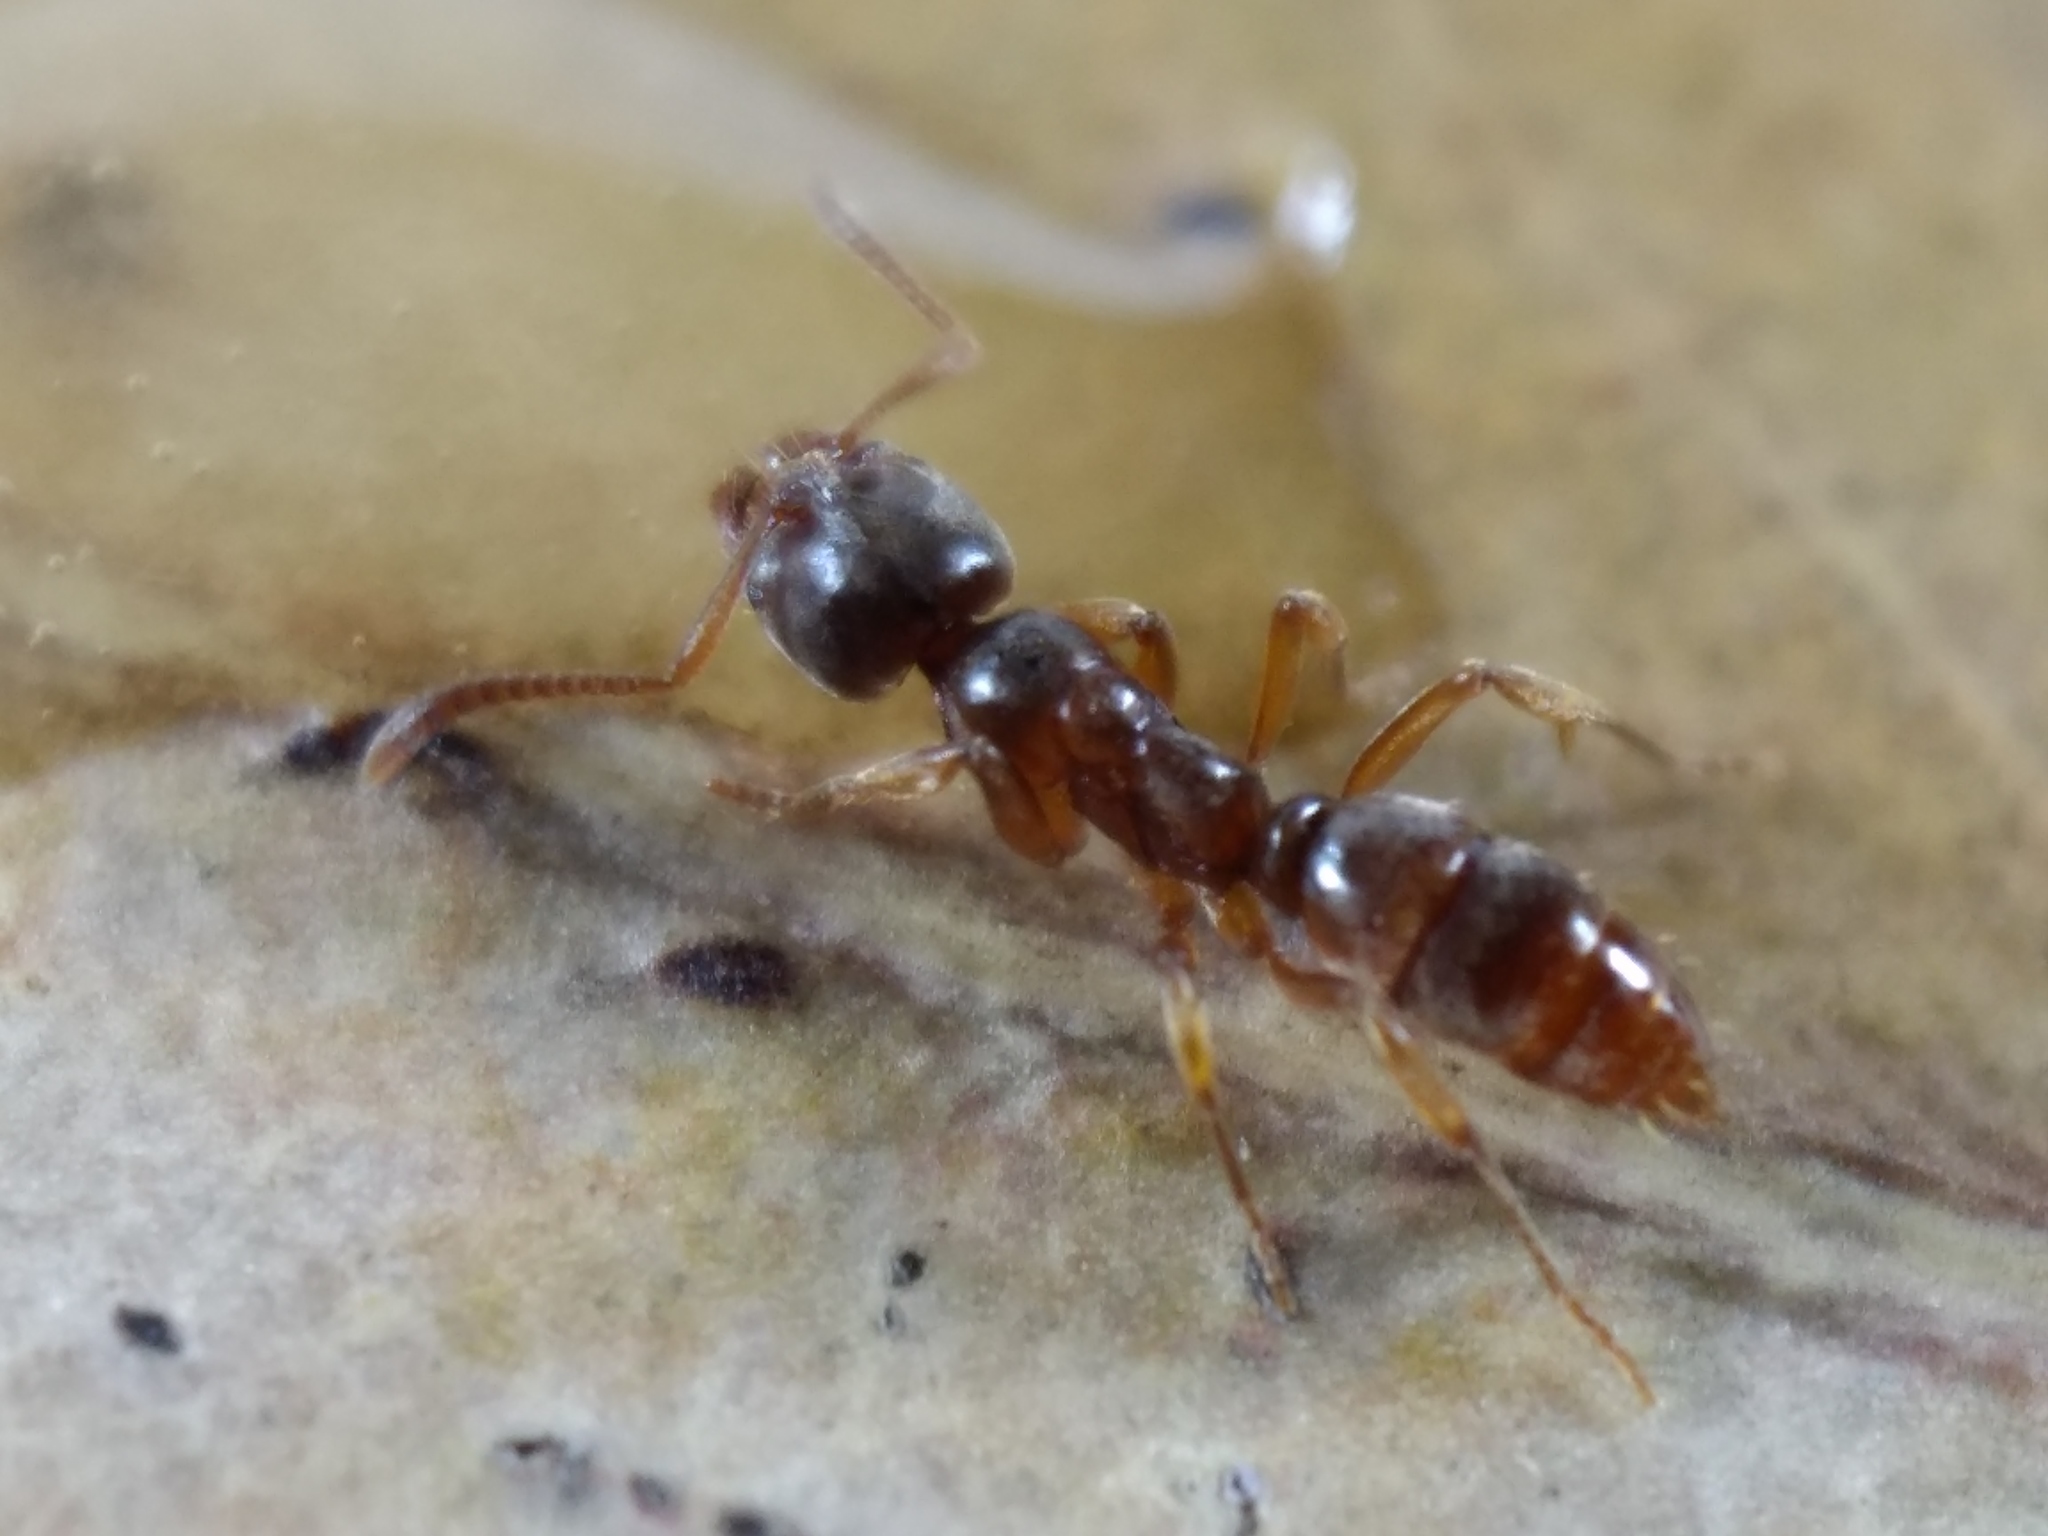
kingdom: Animalia
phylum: Arthropoda
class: Insecta
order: Hymenoptera
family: Formicidae
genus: Brachyponera
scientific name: Brachyponera
